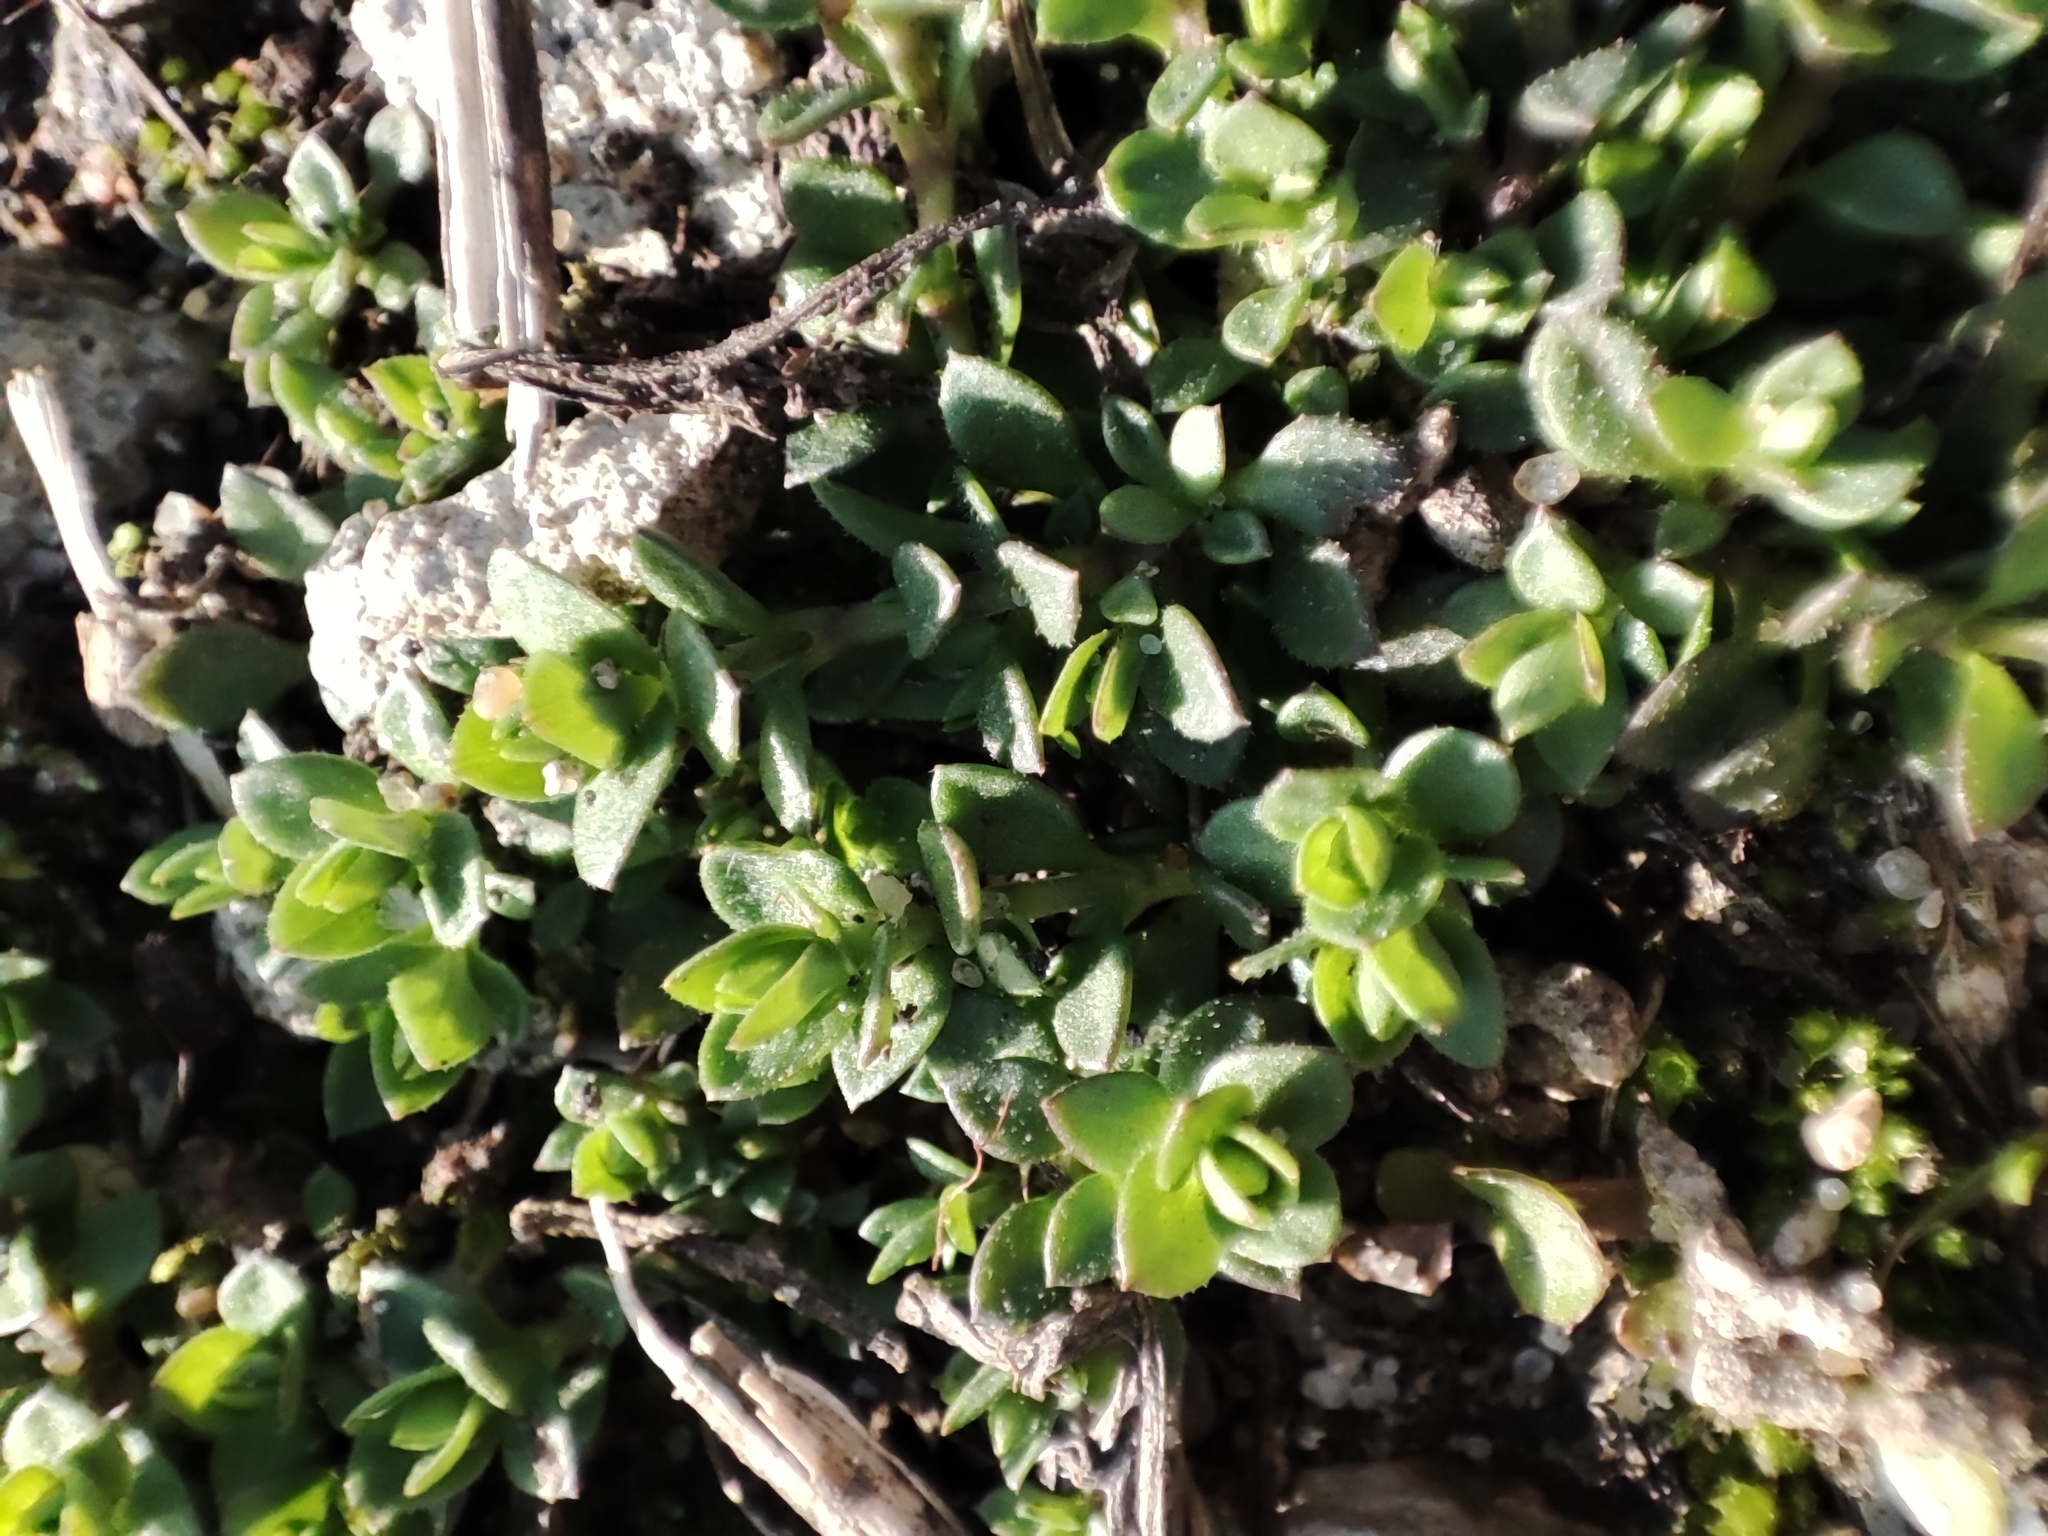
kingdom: Plantae
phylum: Tracheophyta
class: Magnoliopsida
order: Caryophyllales
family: Caryophyllaceae
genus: Arenaria
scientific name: Arenaria serpyllifolia
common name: Thyme-leaved sandwort
